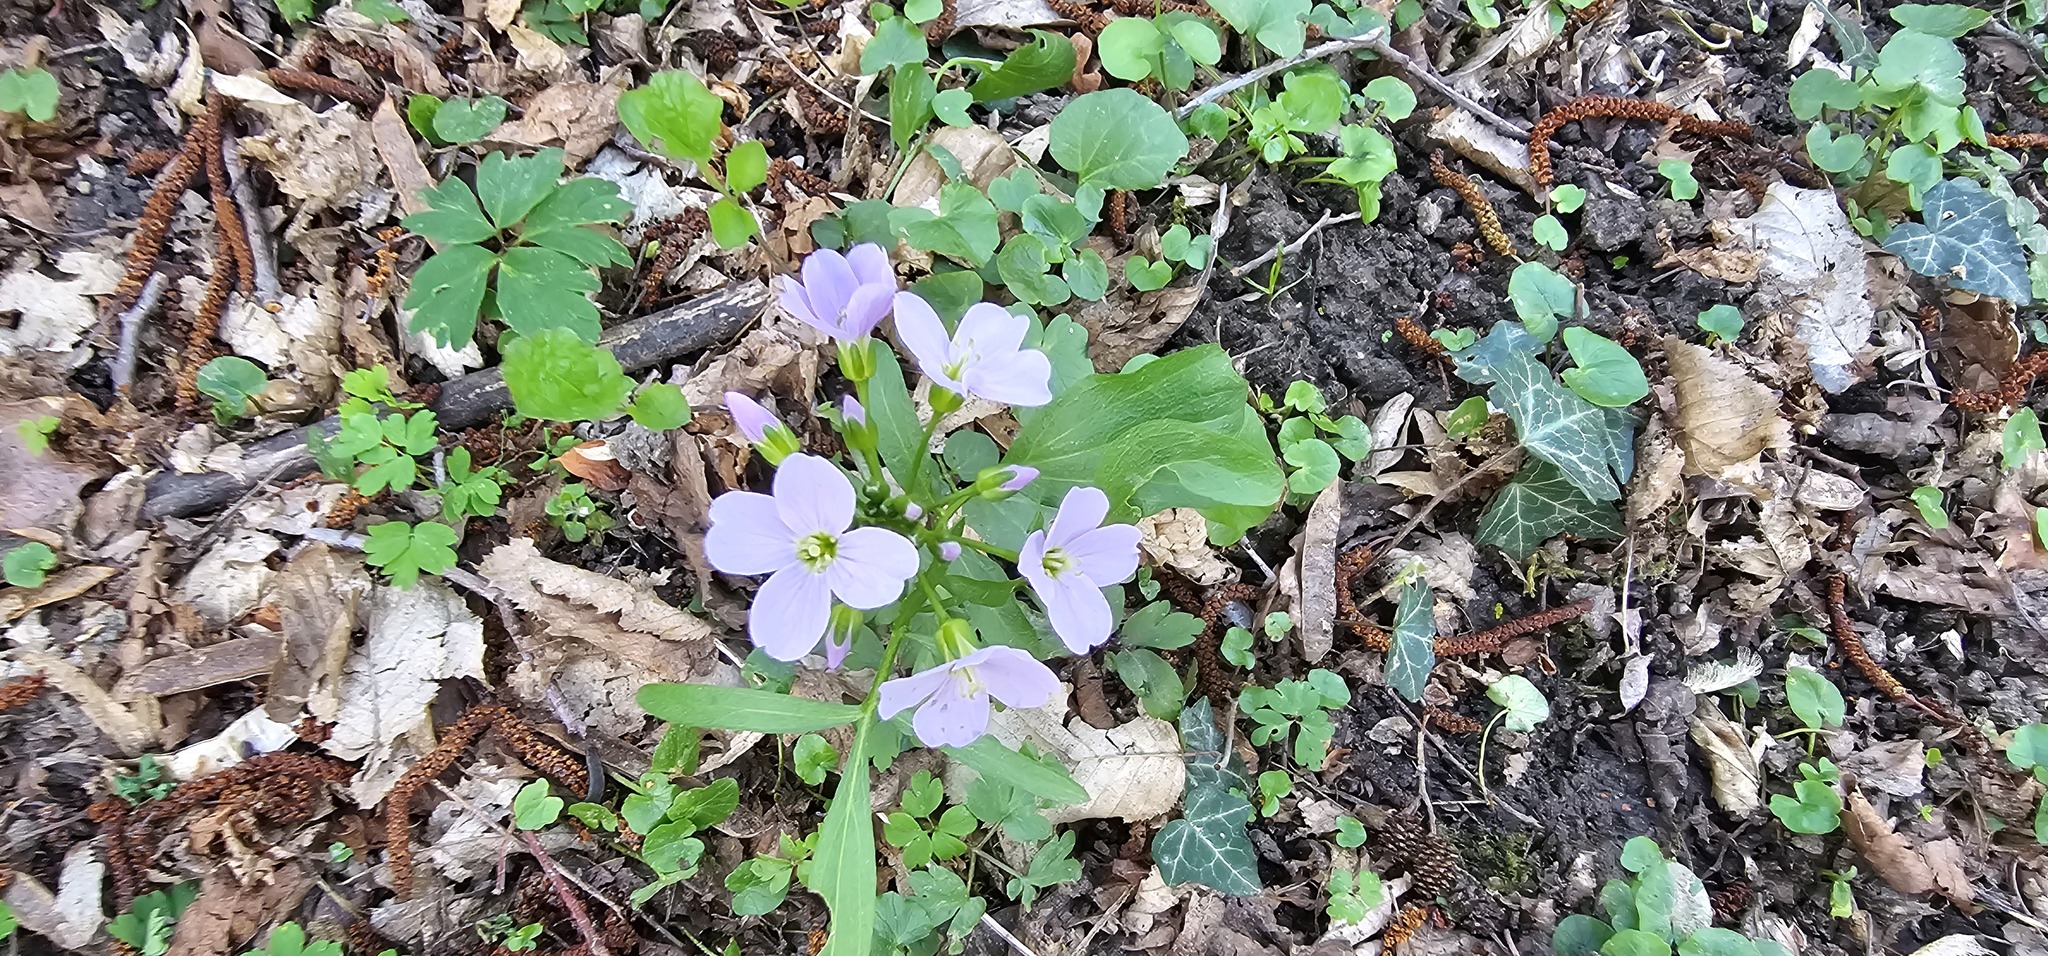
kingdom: Plantae
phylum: Tracheophyta
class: Magnoliopsida
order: Brassicales
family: Brassicaceae
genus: Cardamine
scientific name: Cardamine pratensis
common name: Cuckoo flower
